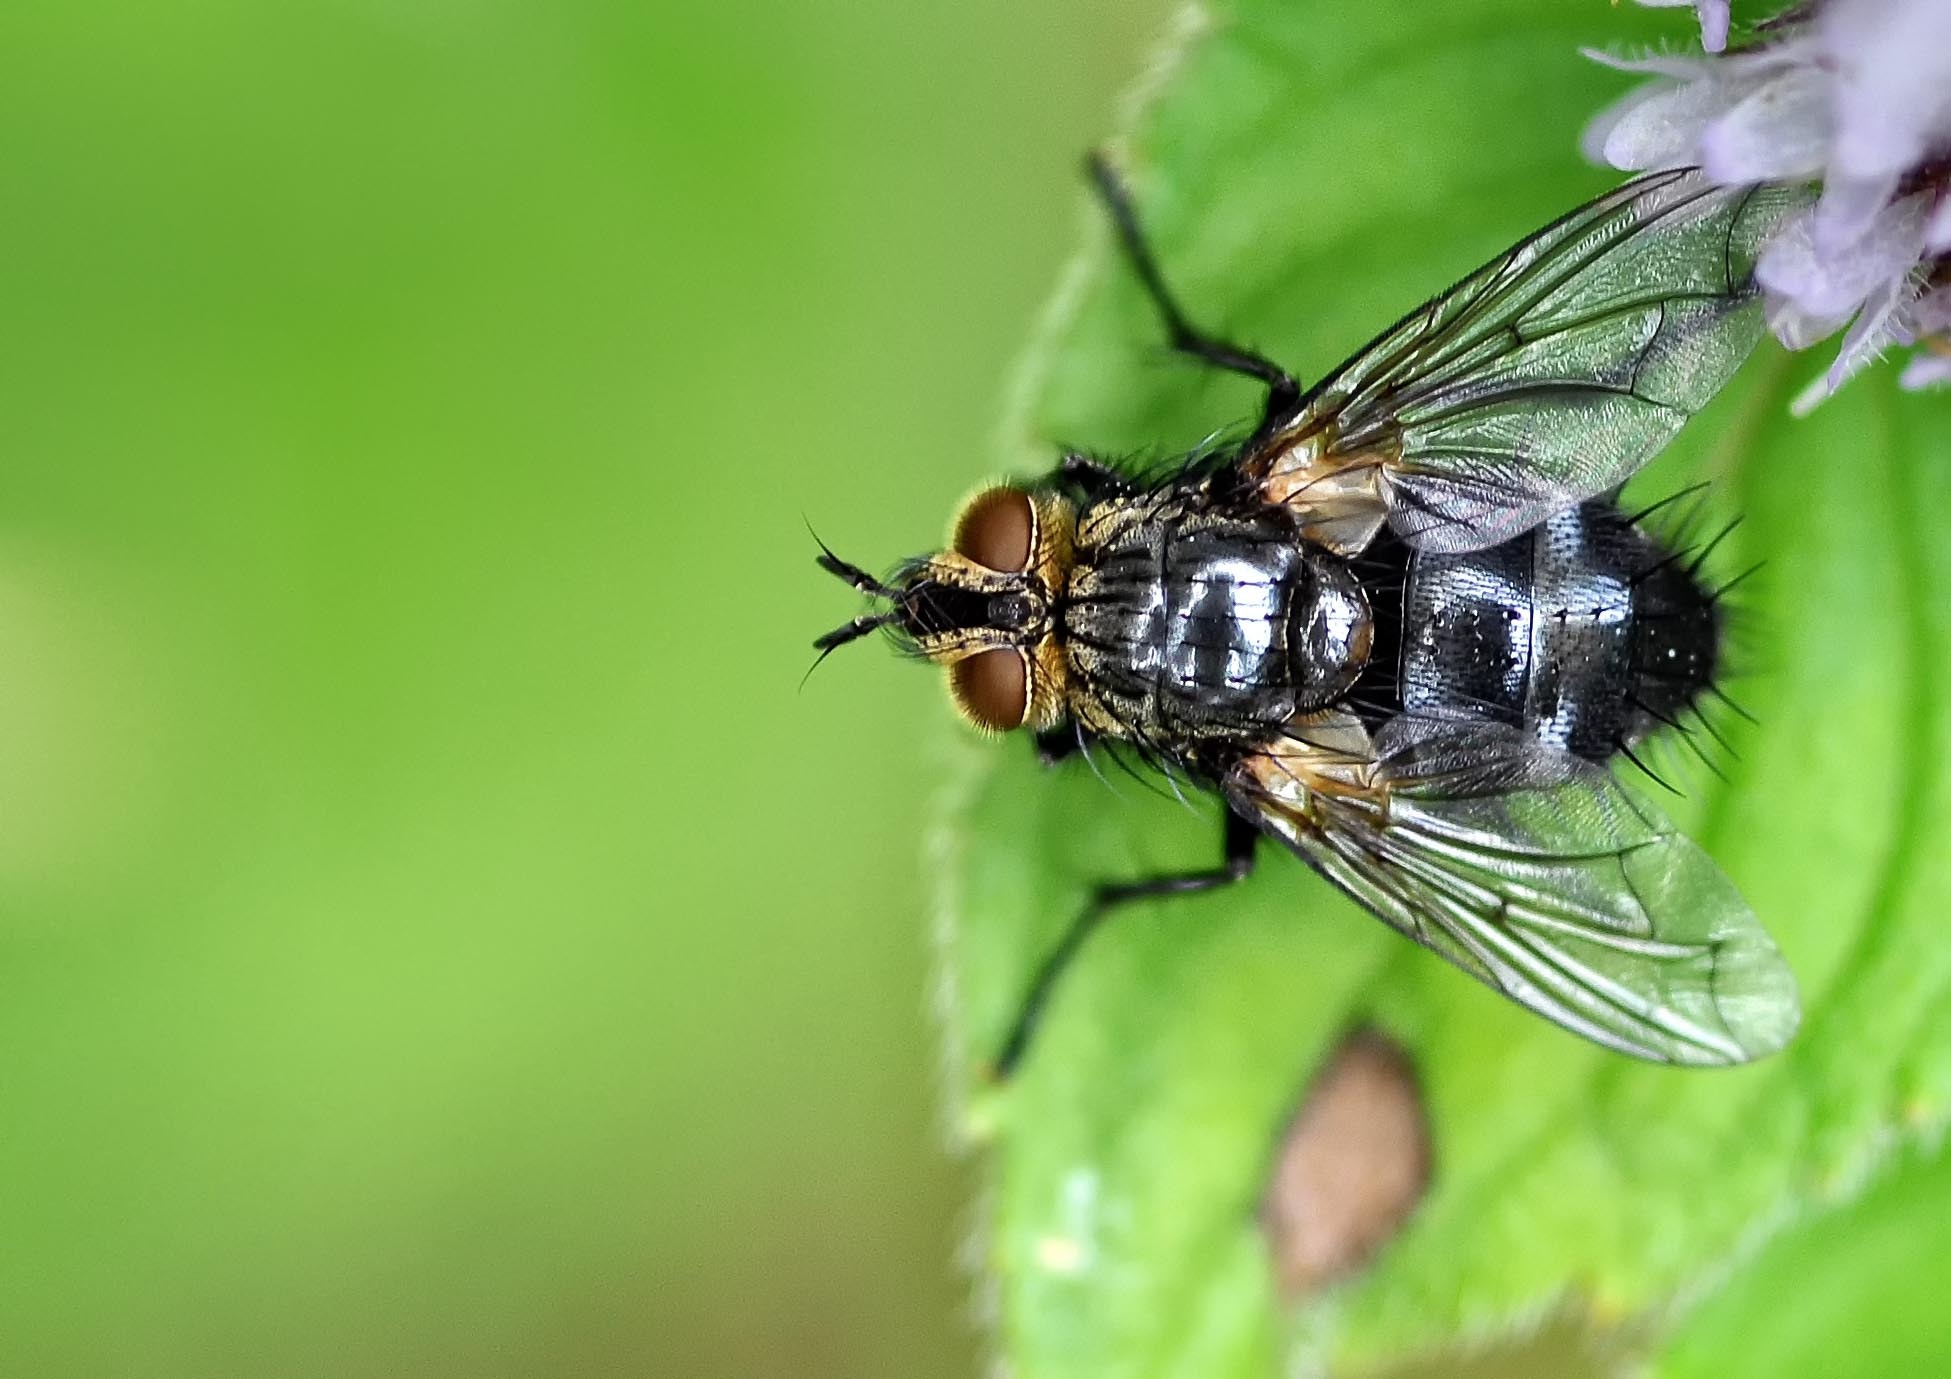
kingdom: Animalia
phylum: Arthropoda
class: Insecta
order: Diptera
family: Tachinidae
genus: Eurithia
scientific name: Eurithia anthophila
